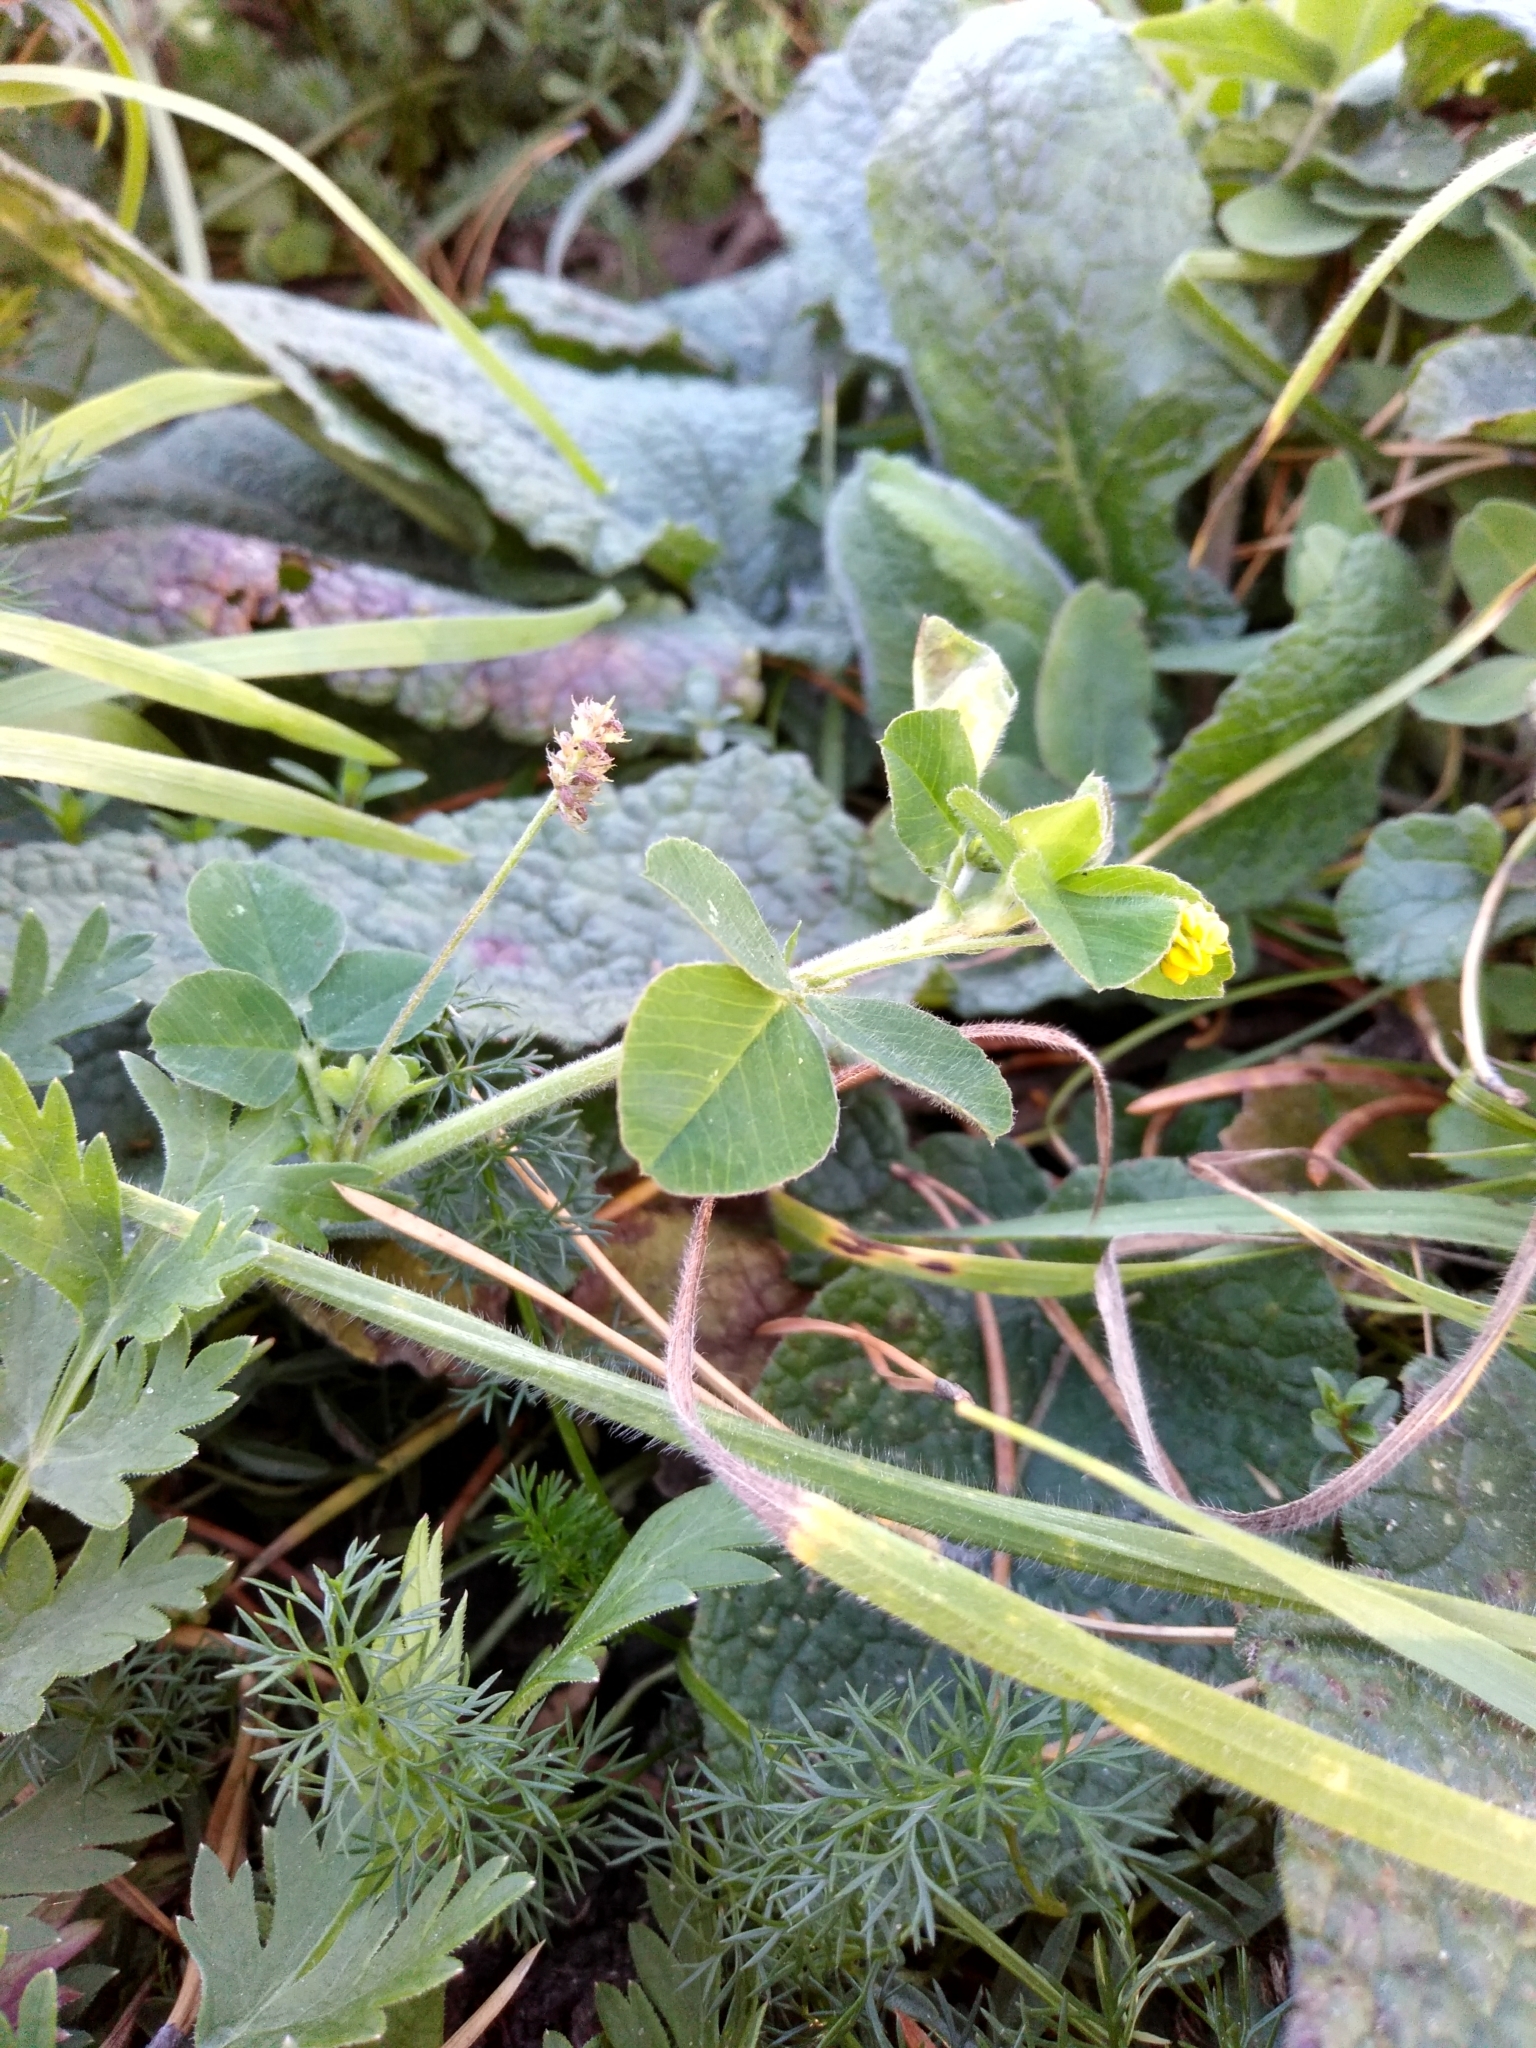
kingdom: Plantae
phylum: Tracheophyta
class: Magnoliopsida
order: Fabales
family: Fabaceae
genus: Medicago
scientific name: Medicago lupulina
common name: Black medick
